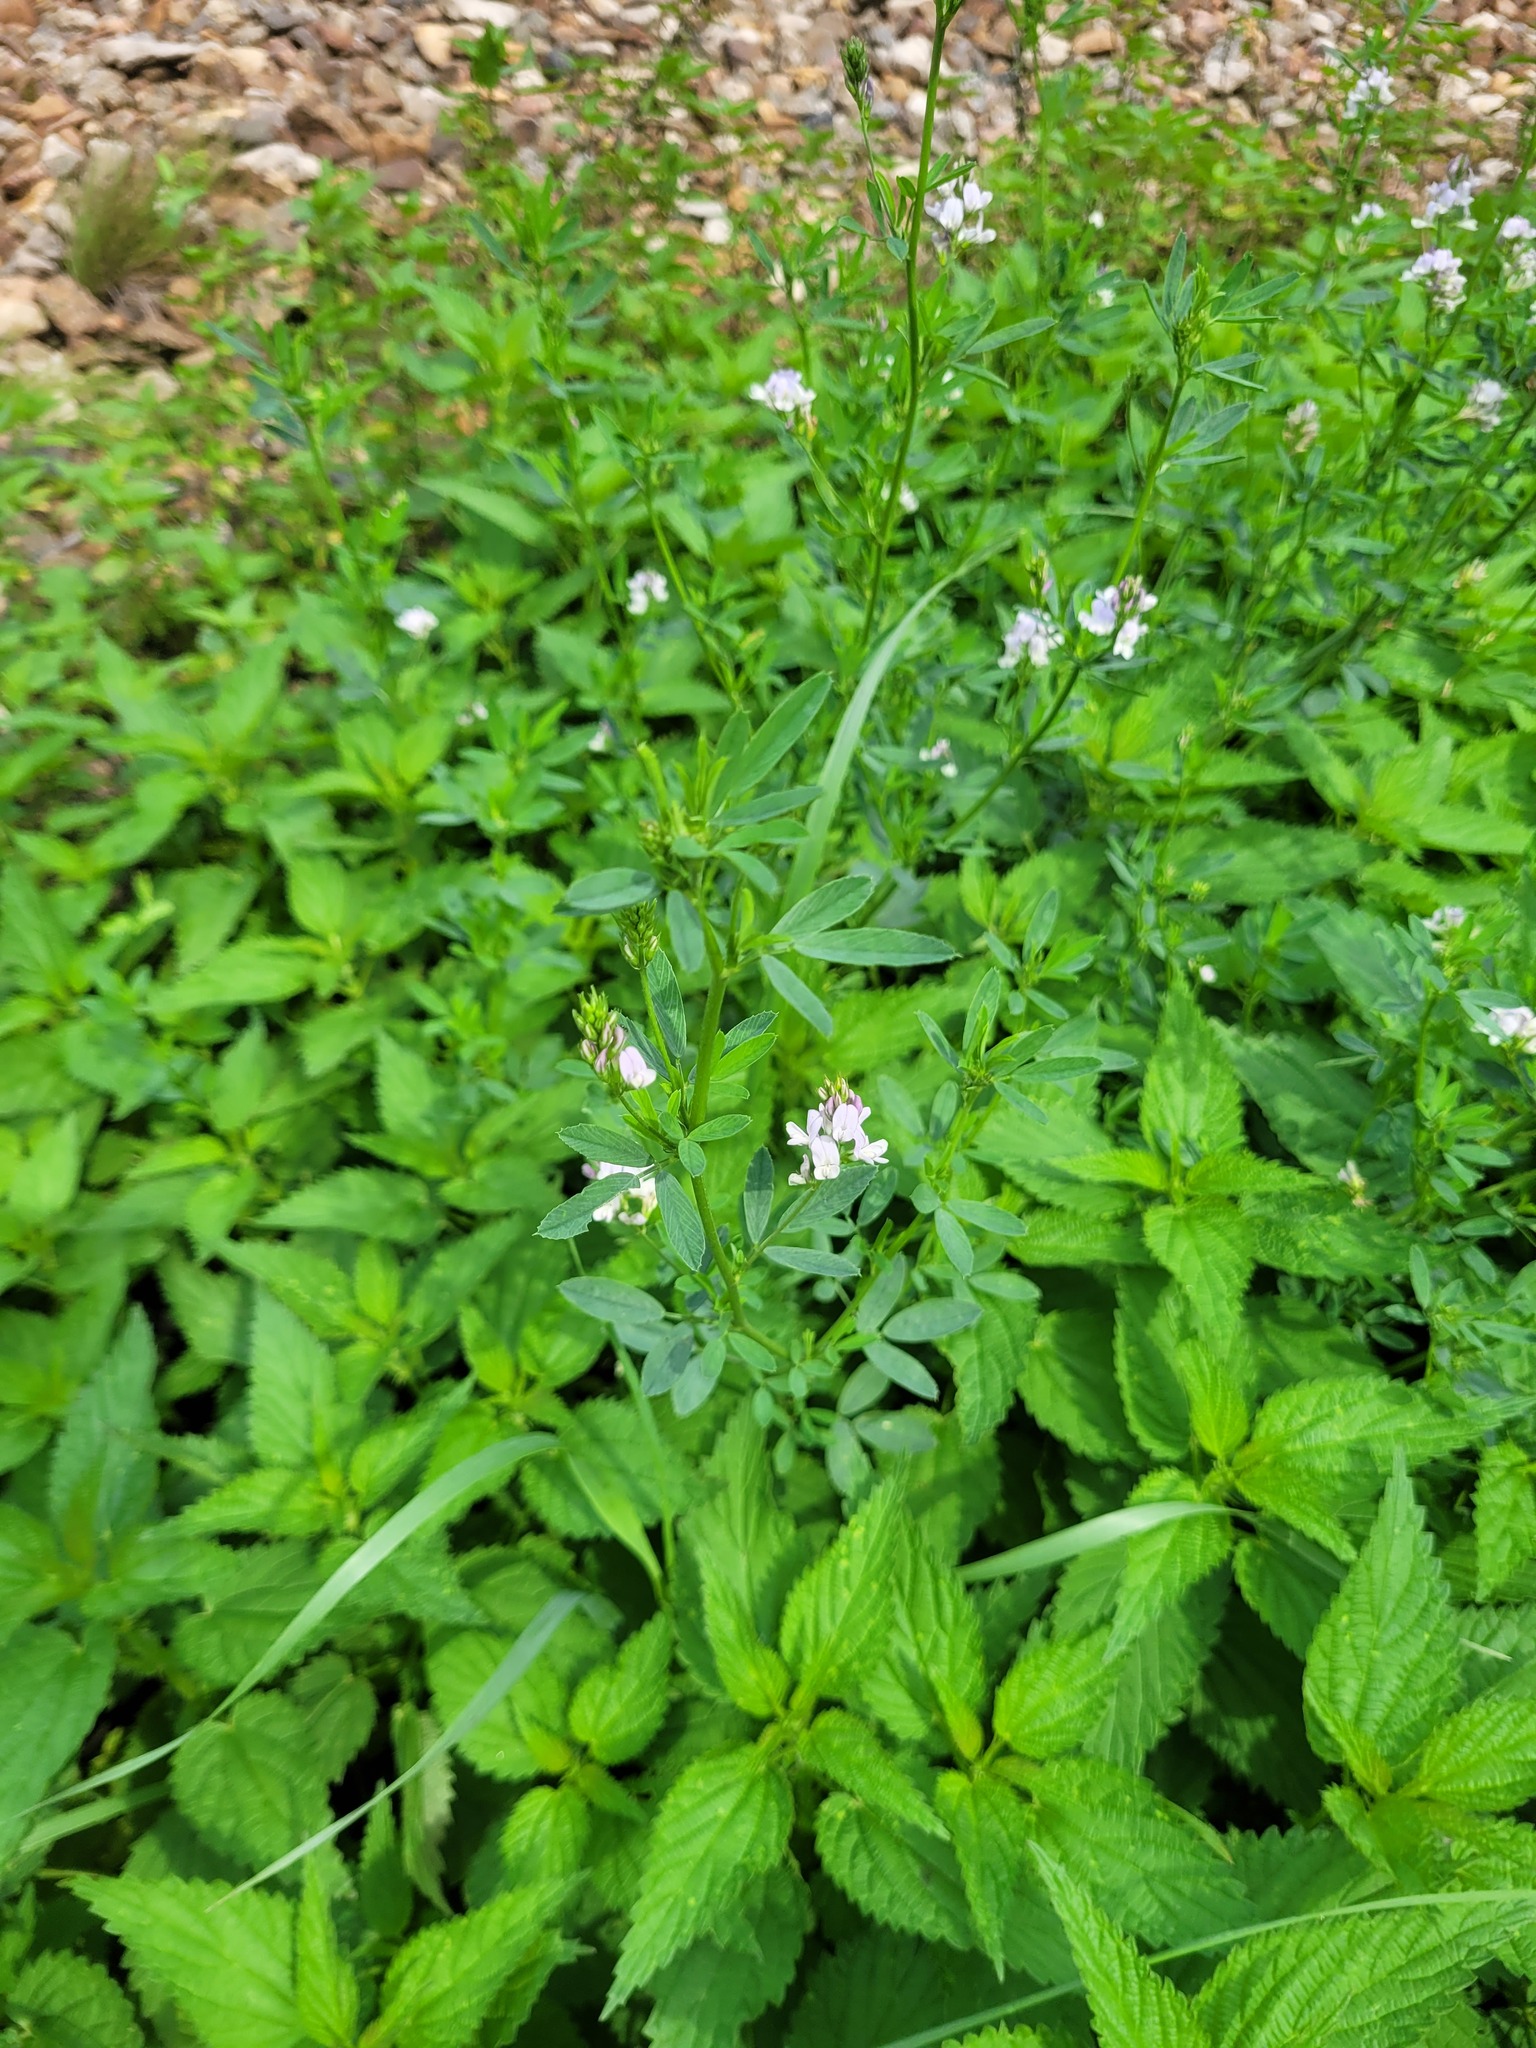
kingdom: Plantae
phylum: Tracheophyta
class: Magnoliopsida
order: Fabales
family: Fabaceae
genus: Medicago
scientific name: Medicago varia
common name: Sand lucerne
